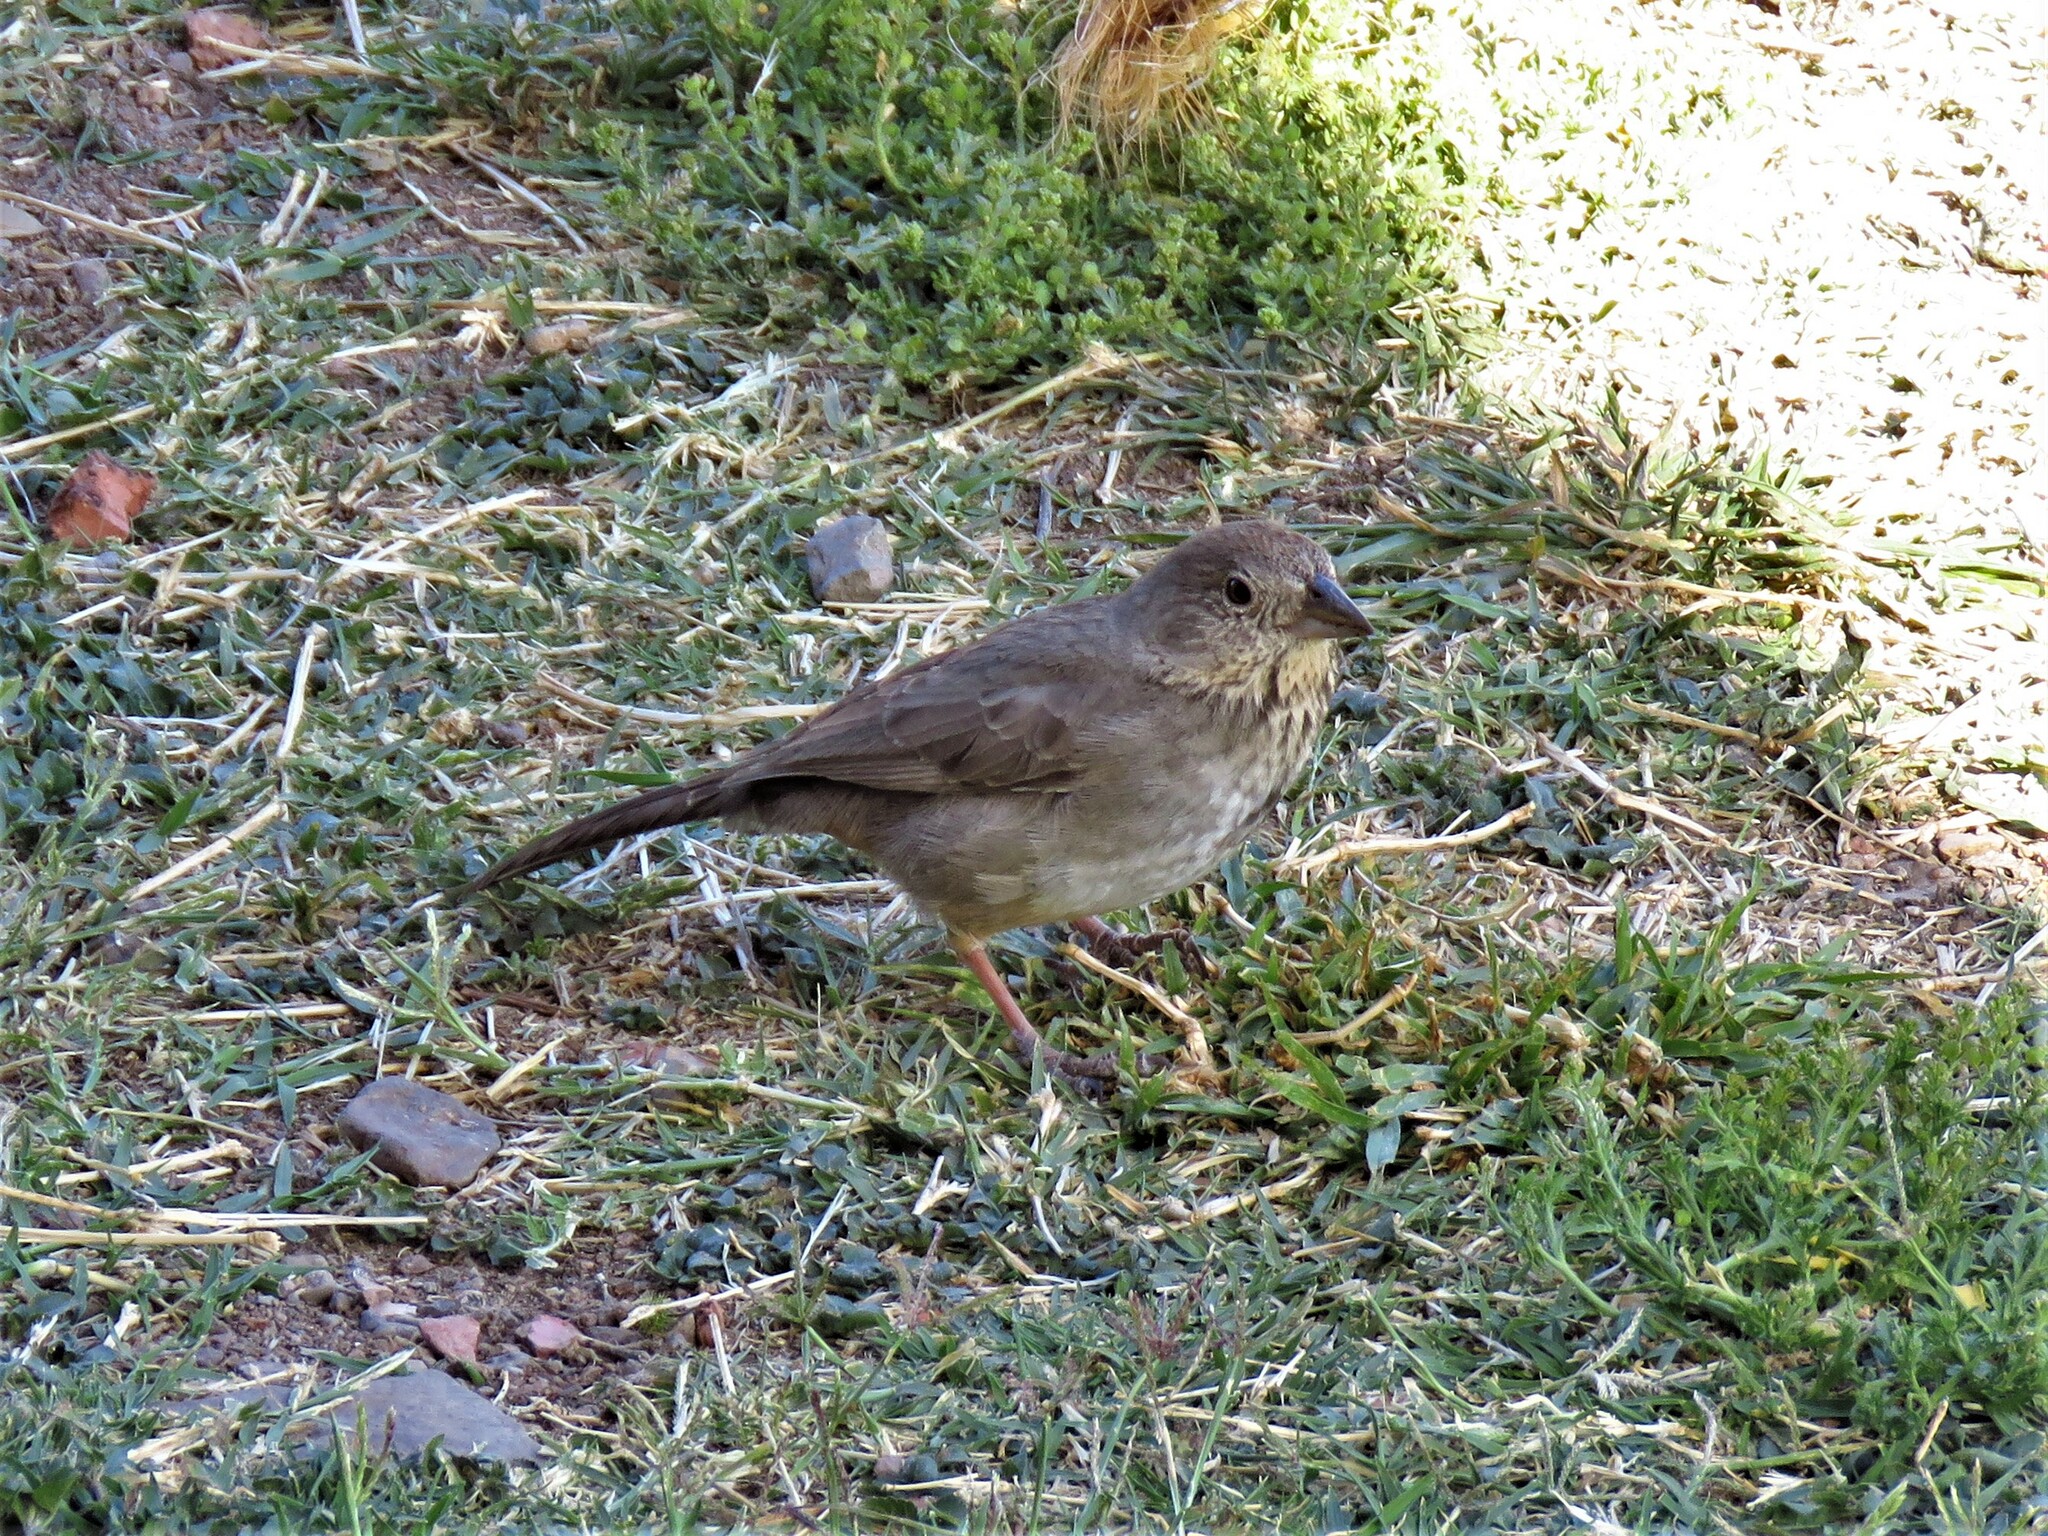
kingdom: Animalia
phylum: Chordata
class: Aves
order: Passeriformes
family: Passerellidae
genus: Melozone
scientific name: Melozone fusca
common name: Canyon towhee
